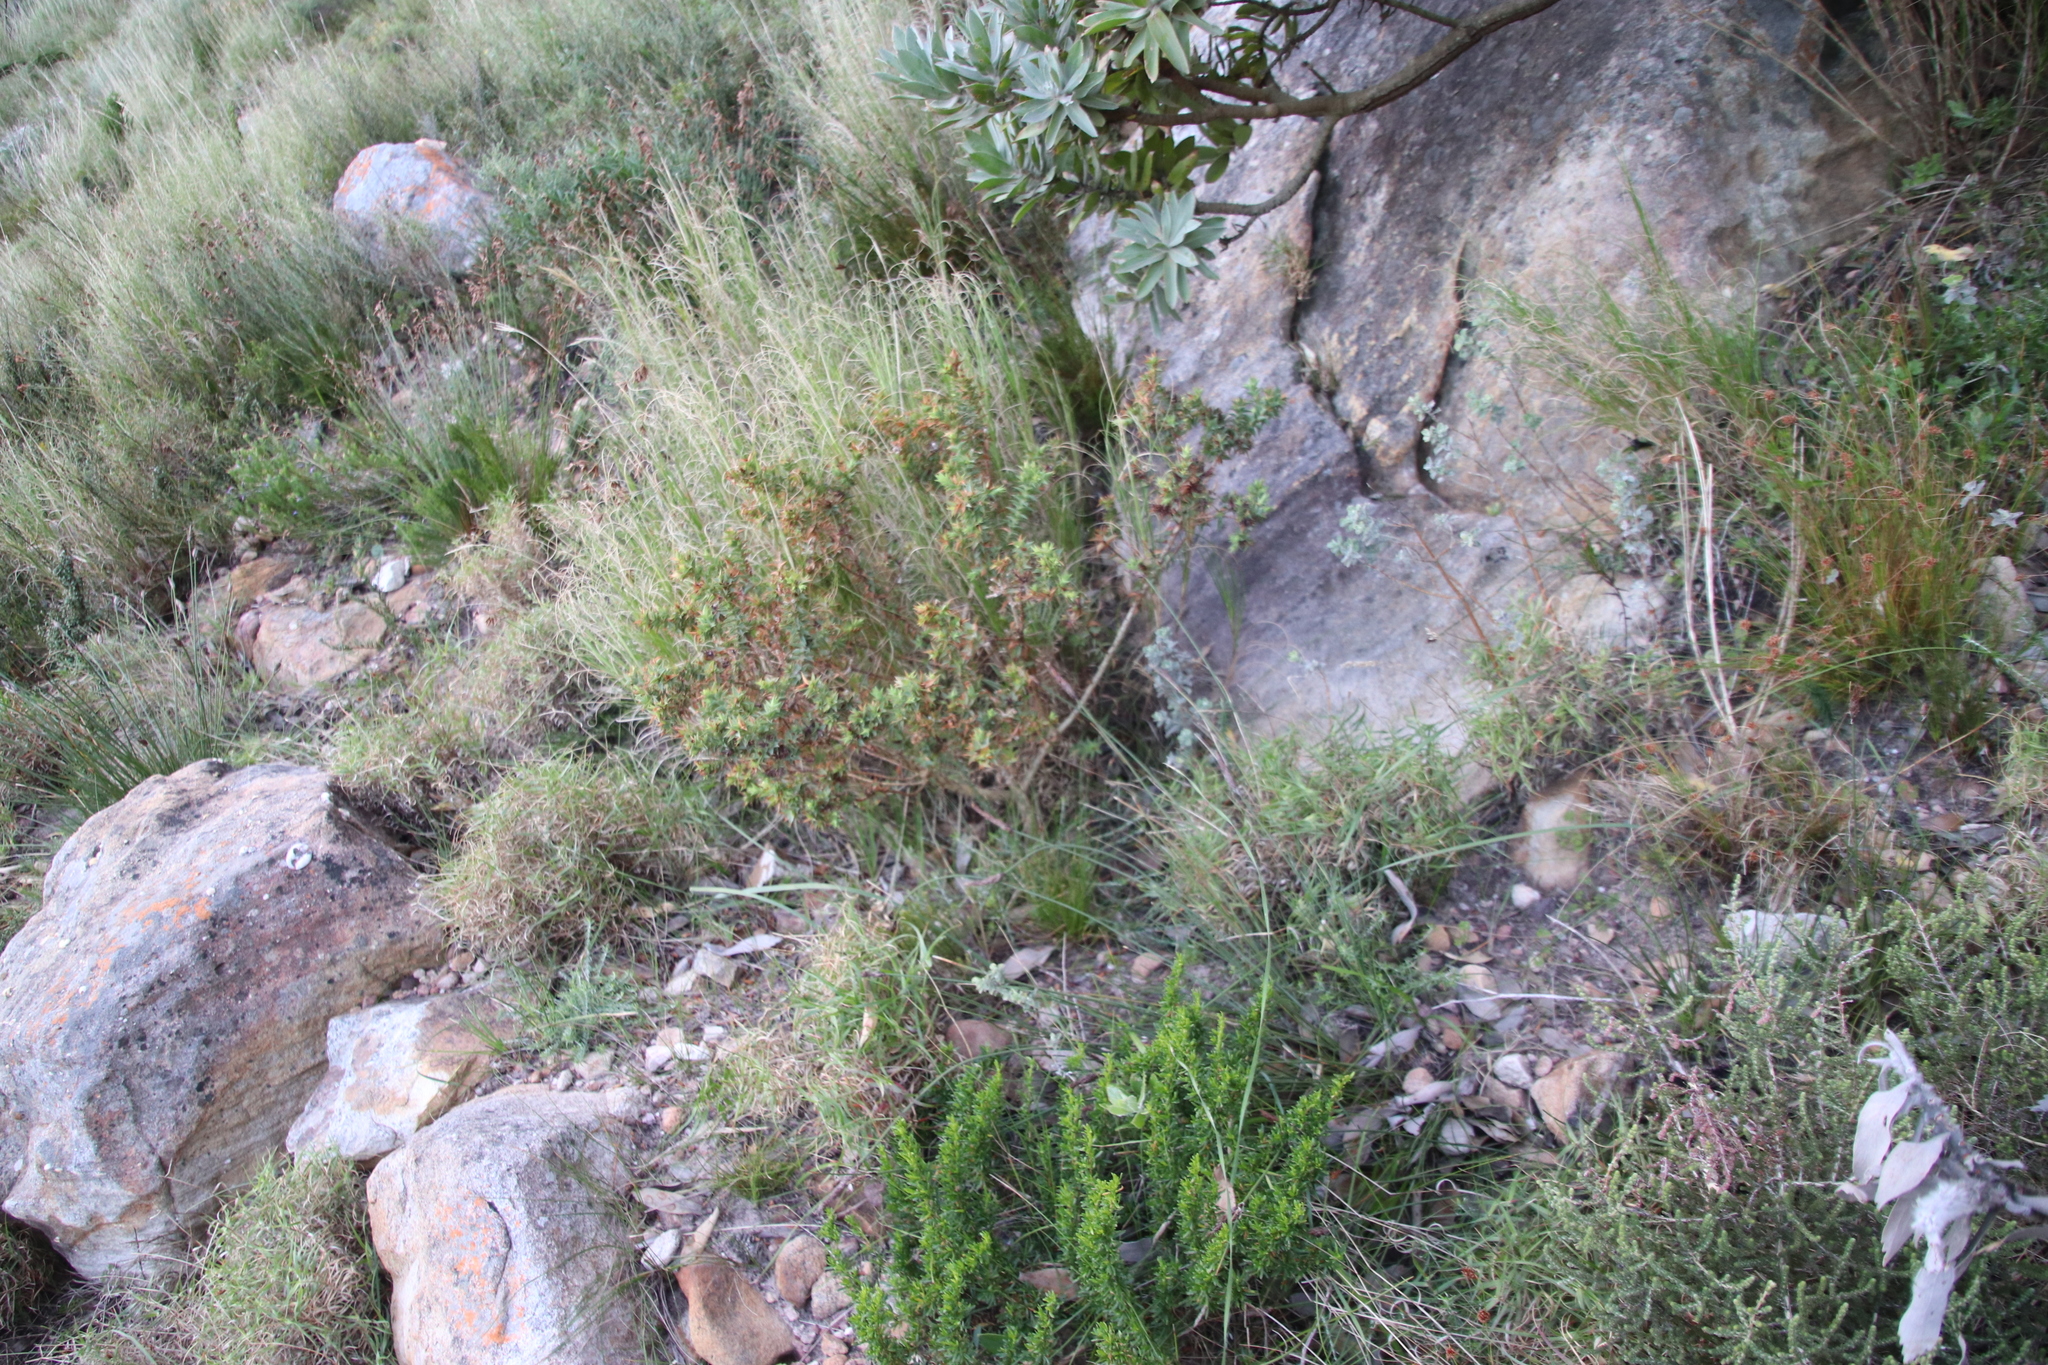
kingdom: Plantae
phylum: Tracheophyta
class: Magnoliopsida
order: Fabales
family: Fabaceae
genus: Aspalathus
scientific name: Aspalathus cordata
